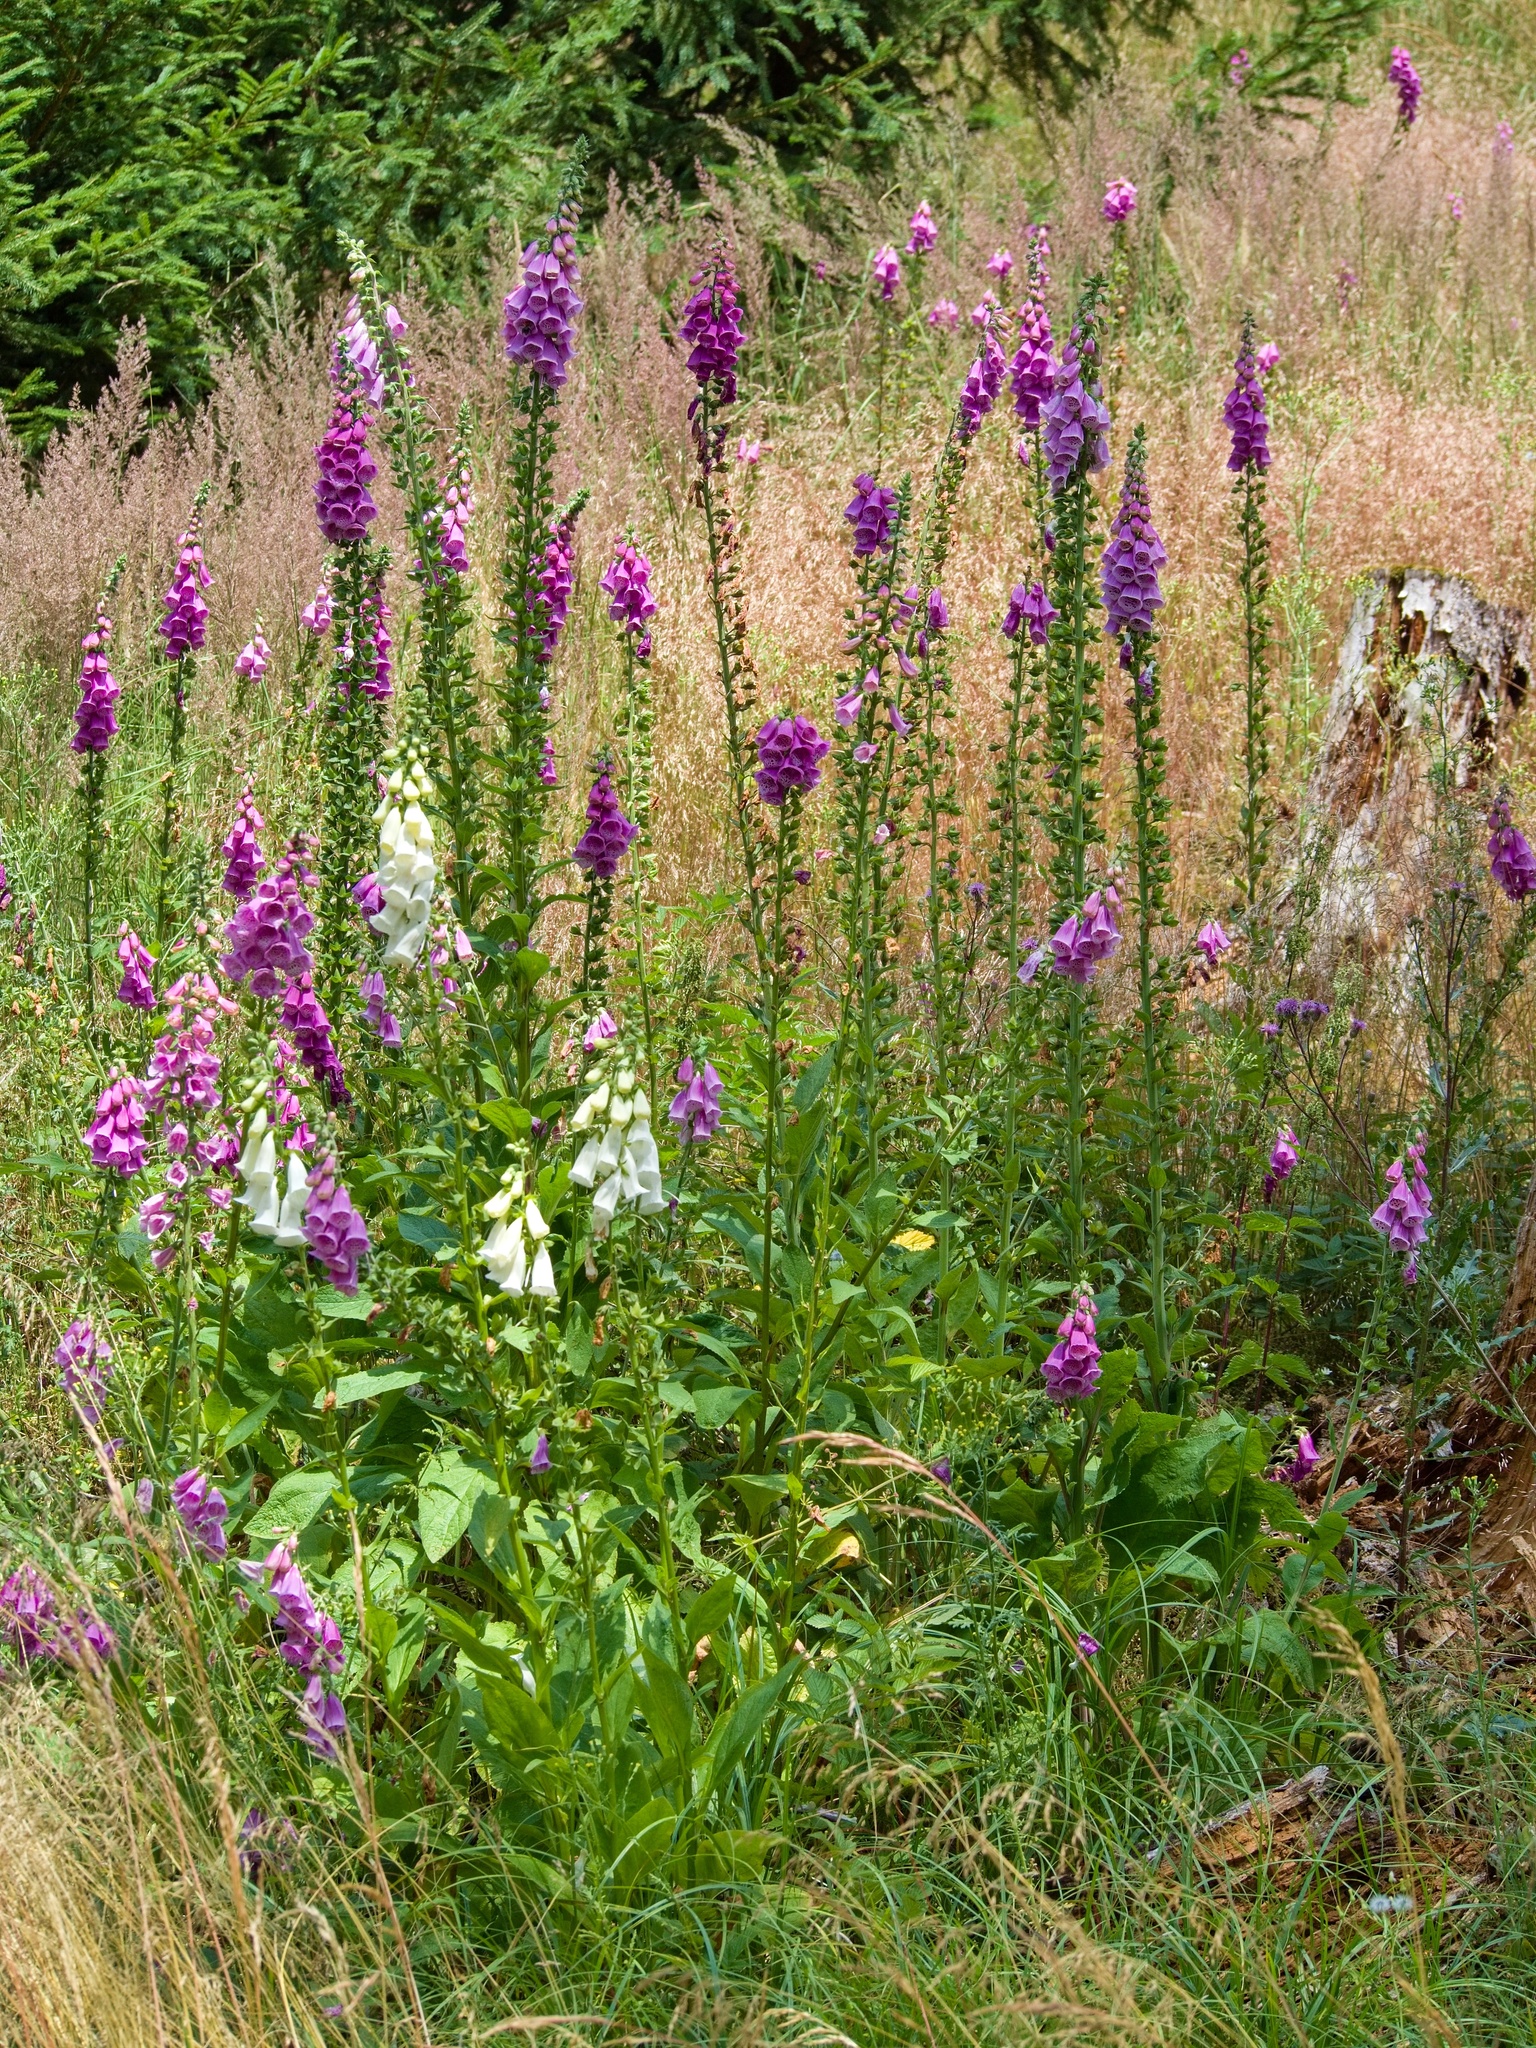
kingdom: Plantae
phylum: Tracheophyta
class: Magnoliopsida
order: Lamiales
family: Plantaginaceae
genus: Digitalis
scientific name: Digitalis purpurea
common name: Foxglove
